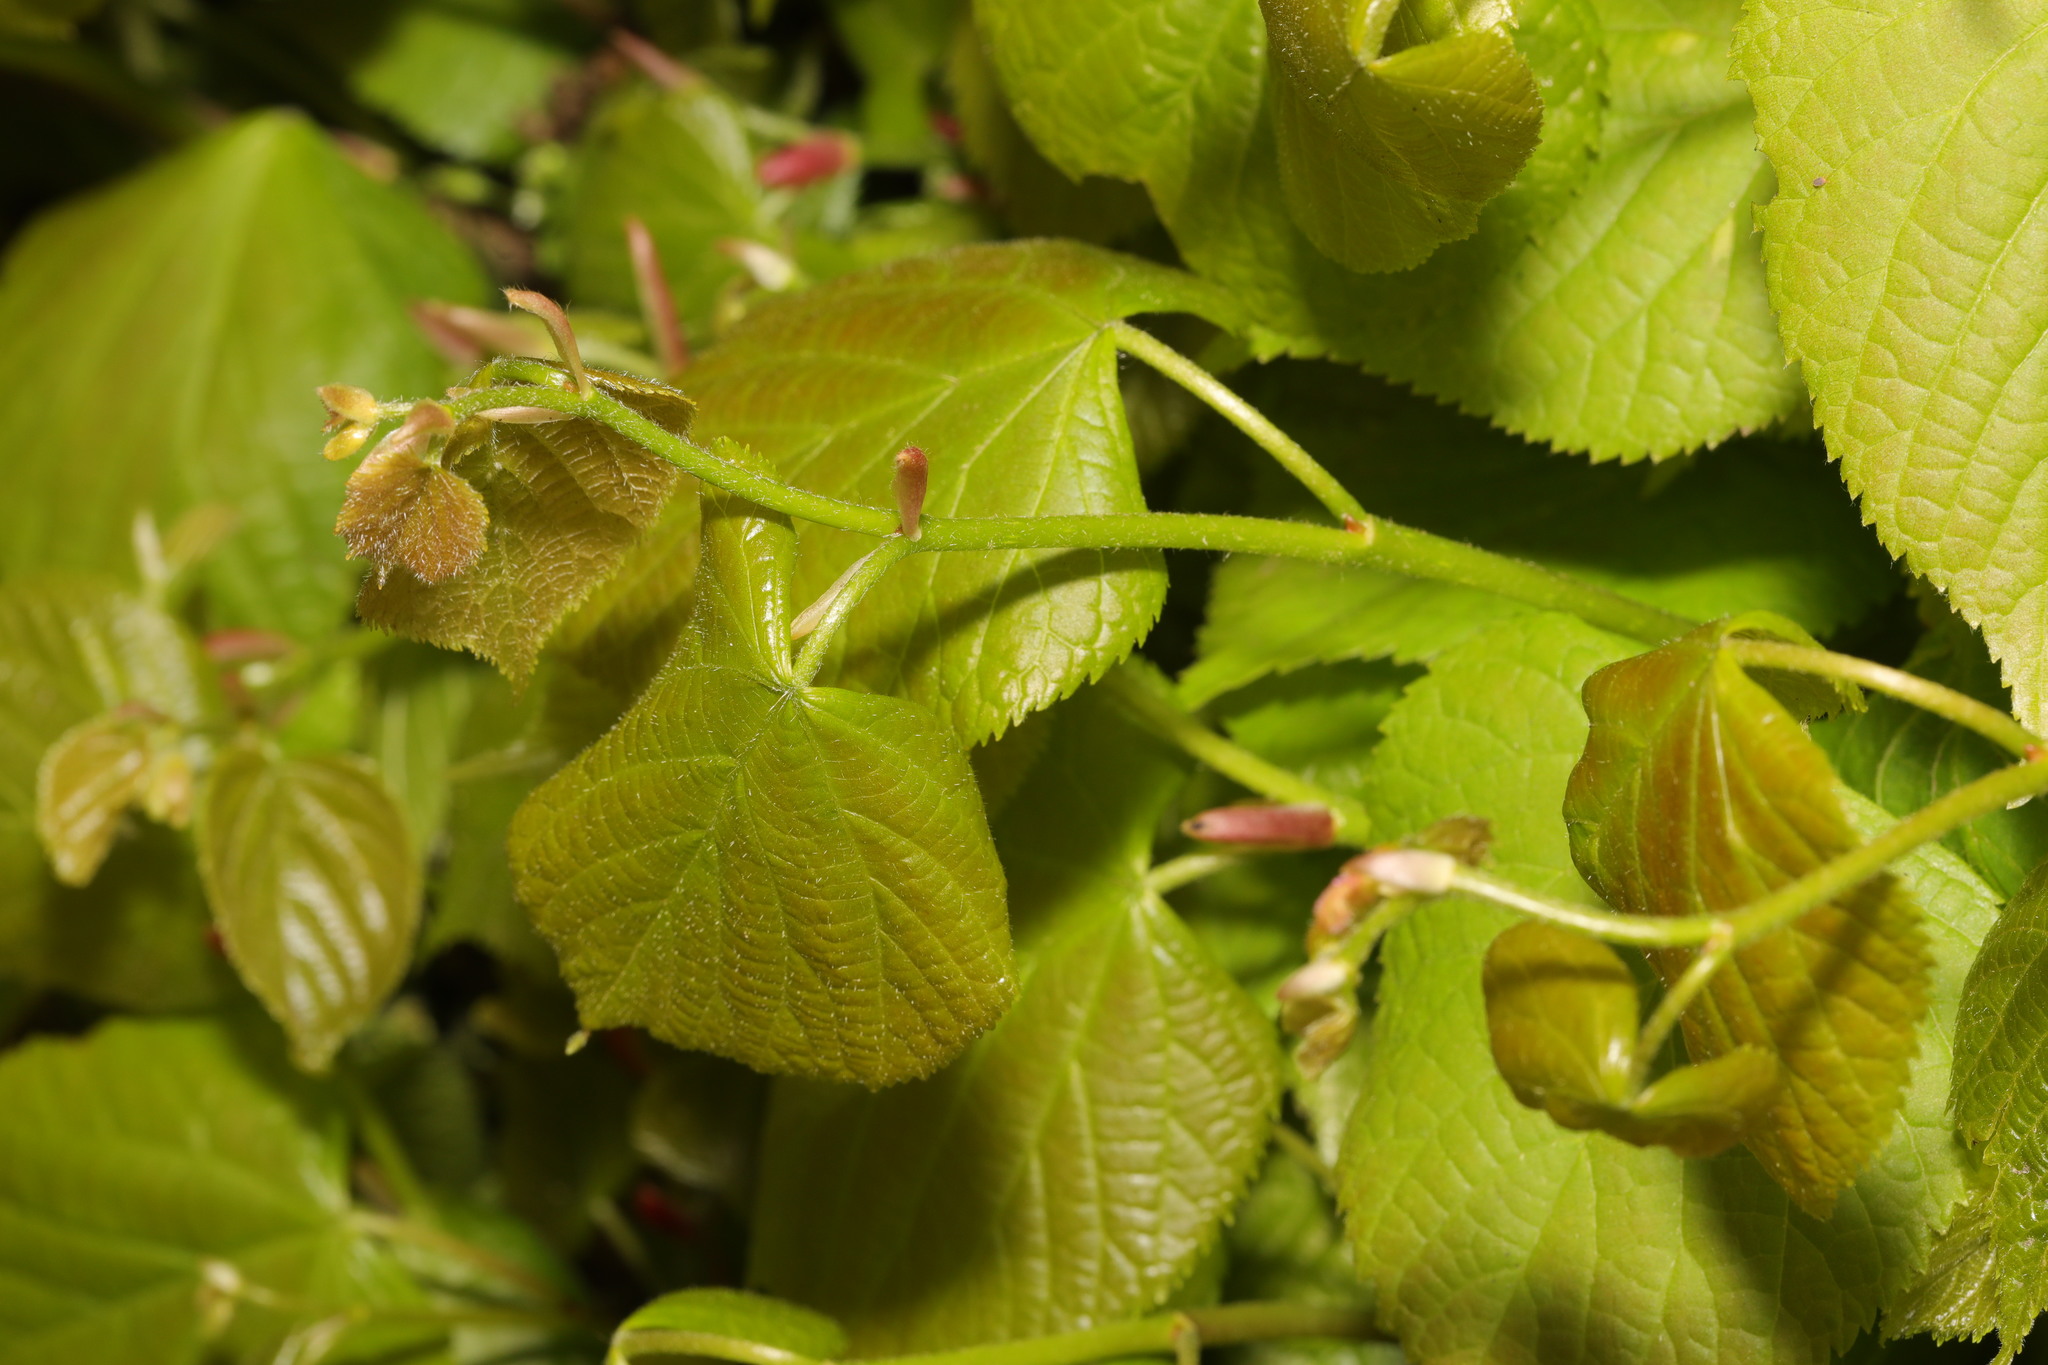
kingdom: Plantae
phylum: Tracheophyta
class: Magnoliopsida
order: Malvales
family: Malvaceae
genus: Tilia
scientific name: Tilia europaea
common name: European linden
